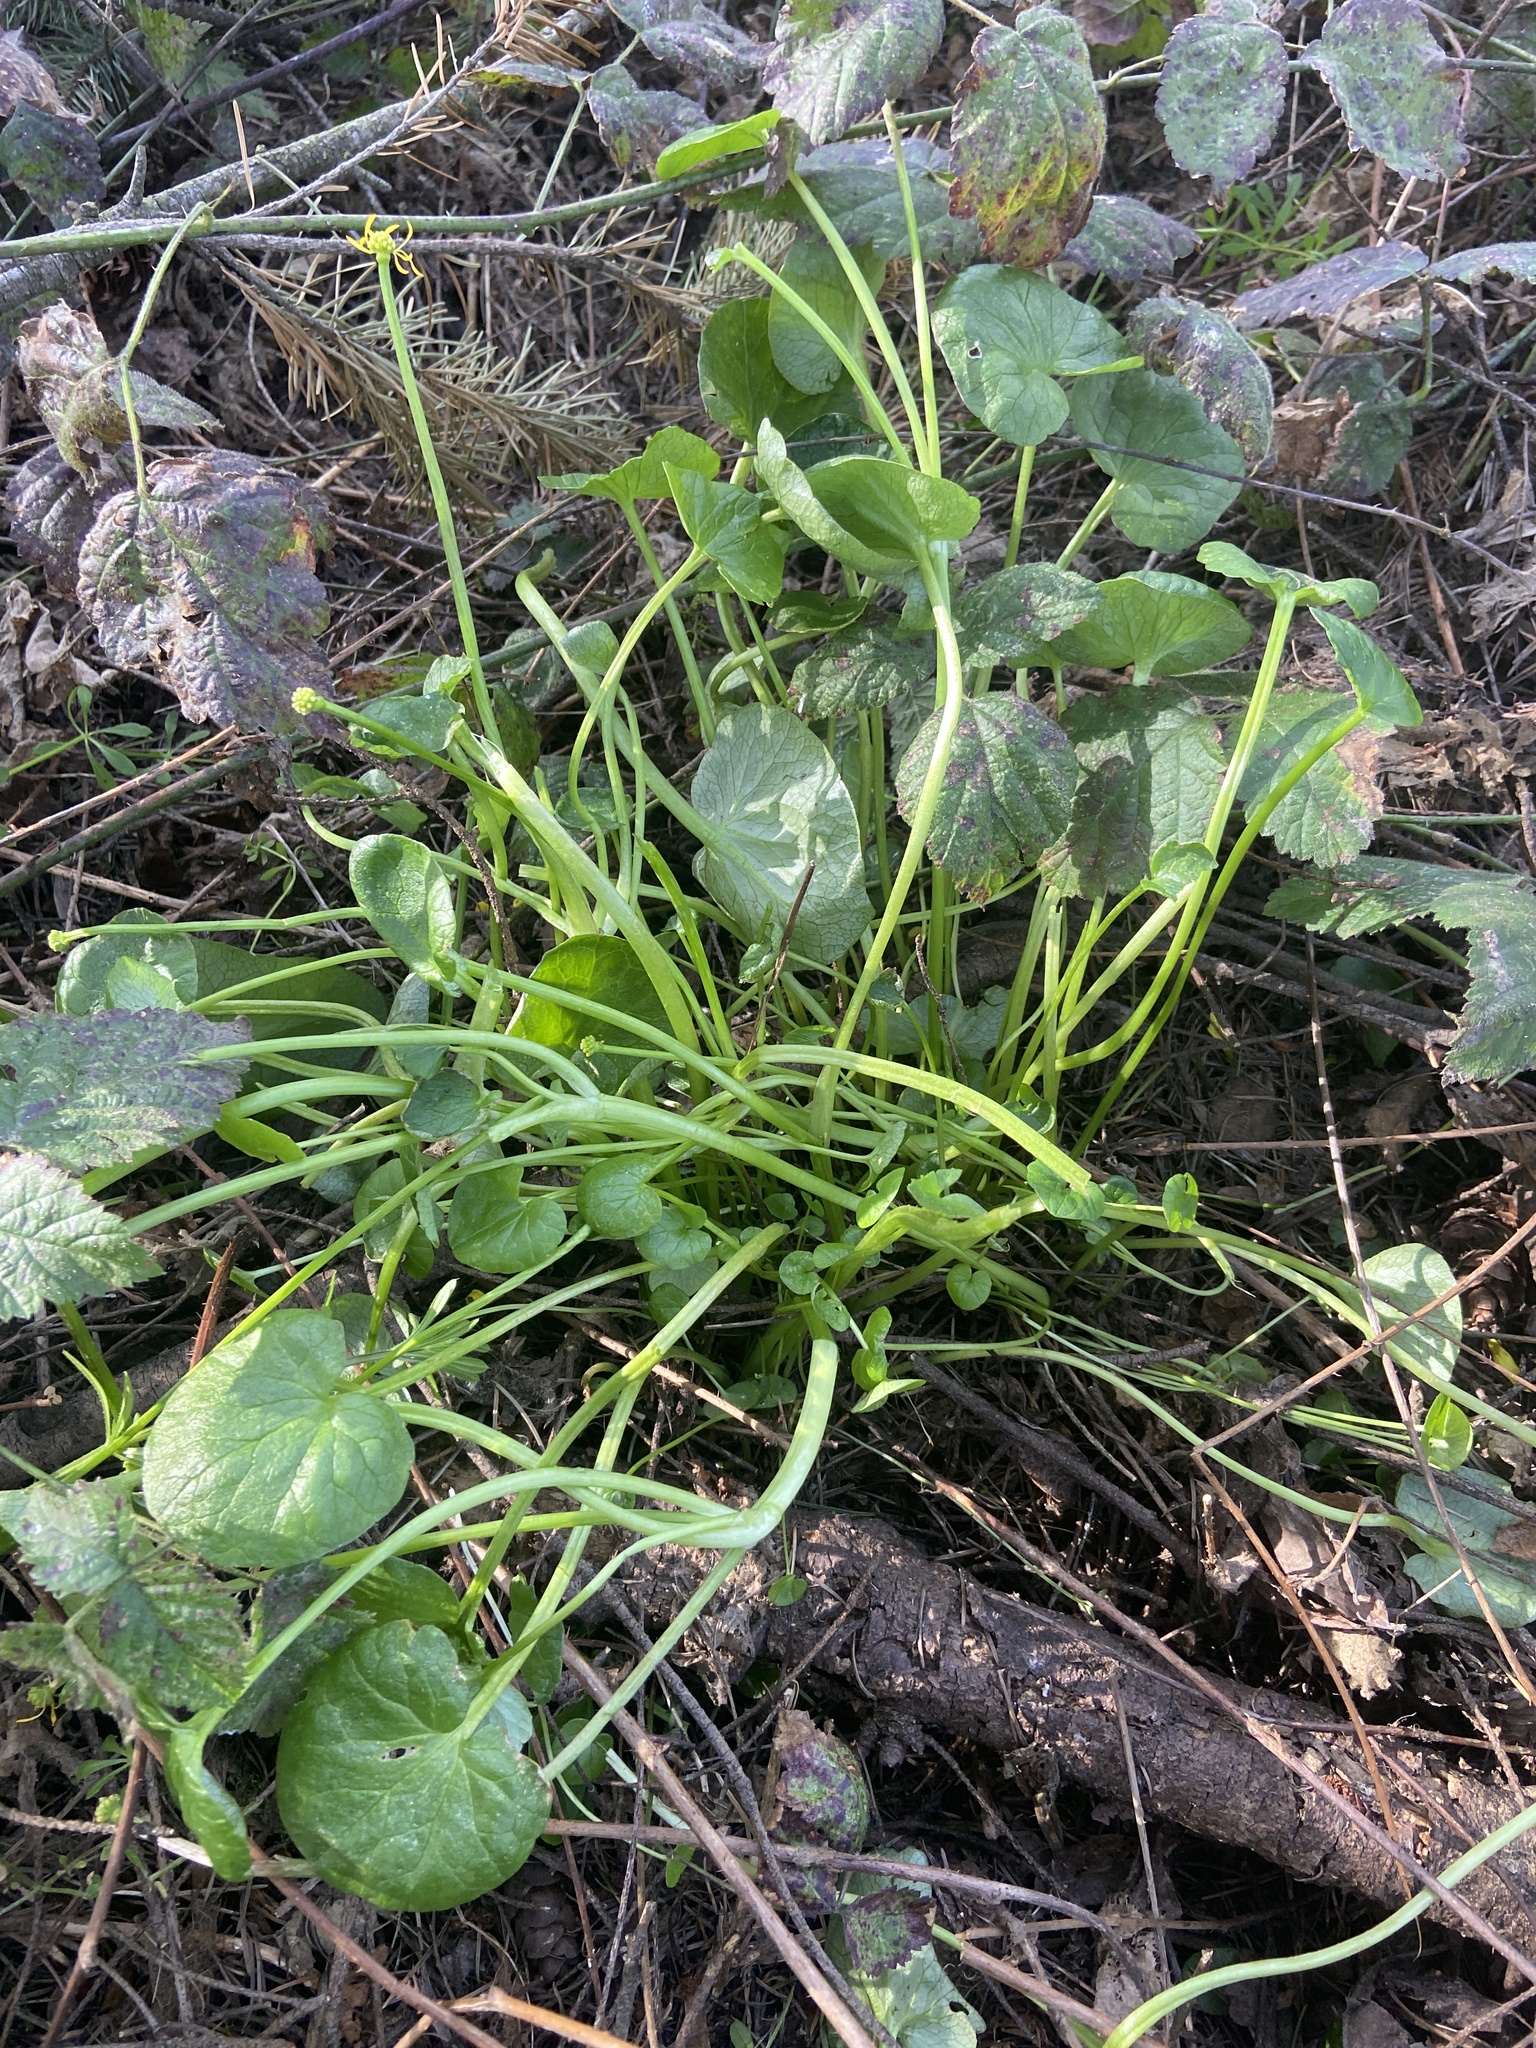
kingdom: Plantae
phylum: Tracheophyta
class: Magnoliopsida
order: Ranunculales
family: Ranunculaceae
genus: Ficaria
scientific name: Ficaria verna
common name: Lesser celandine
